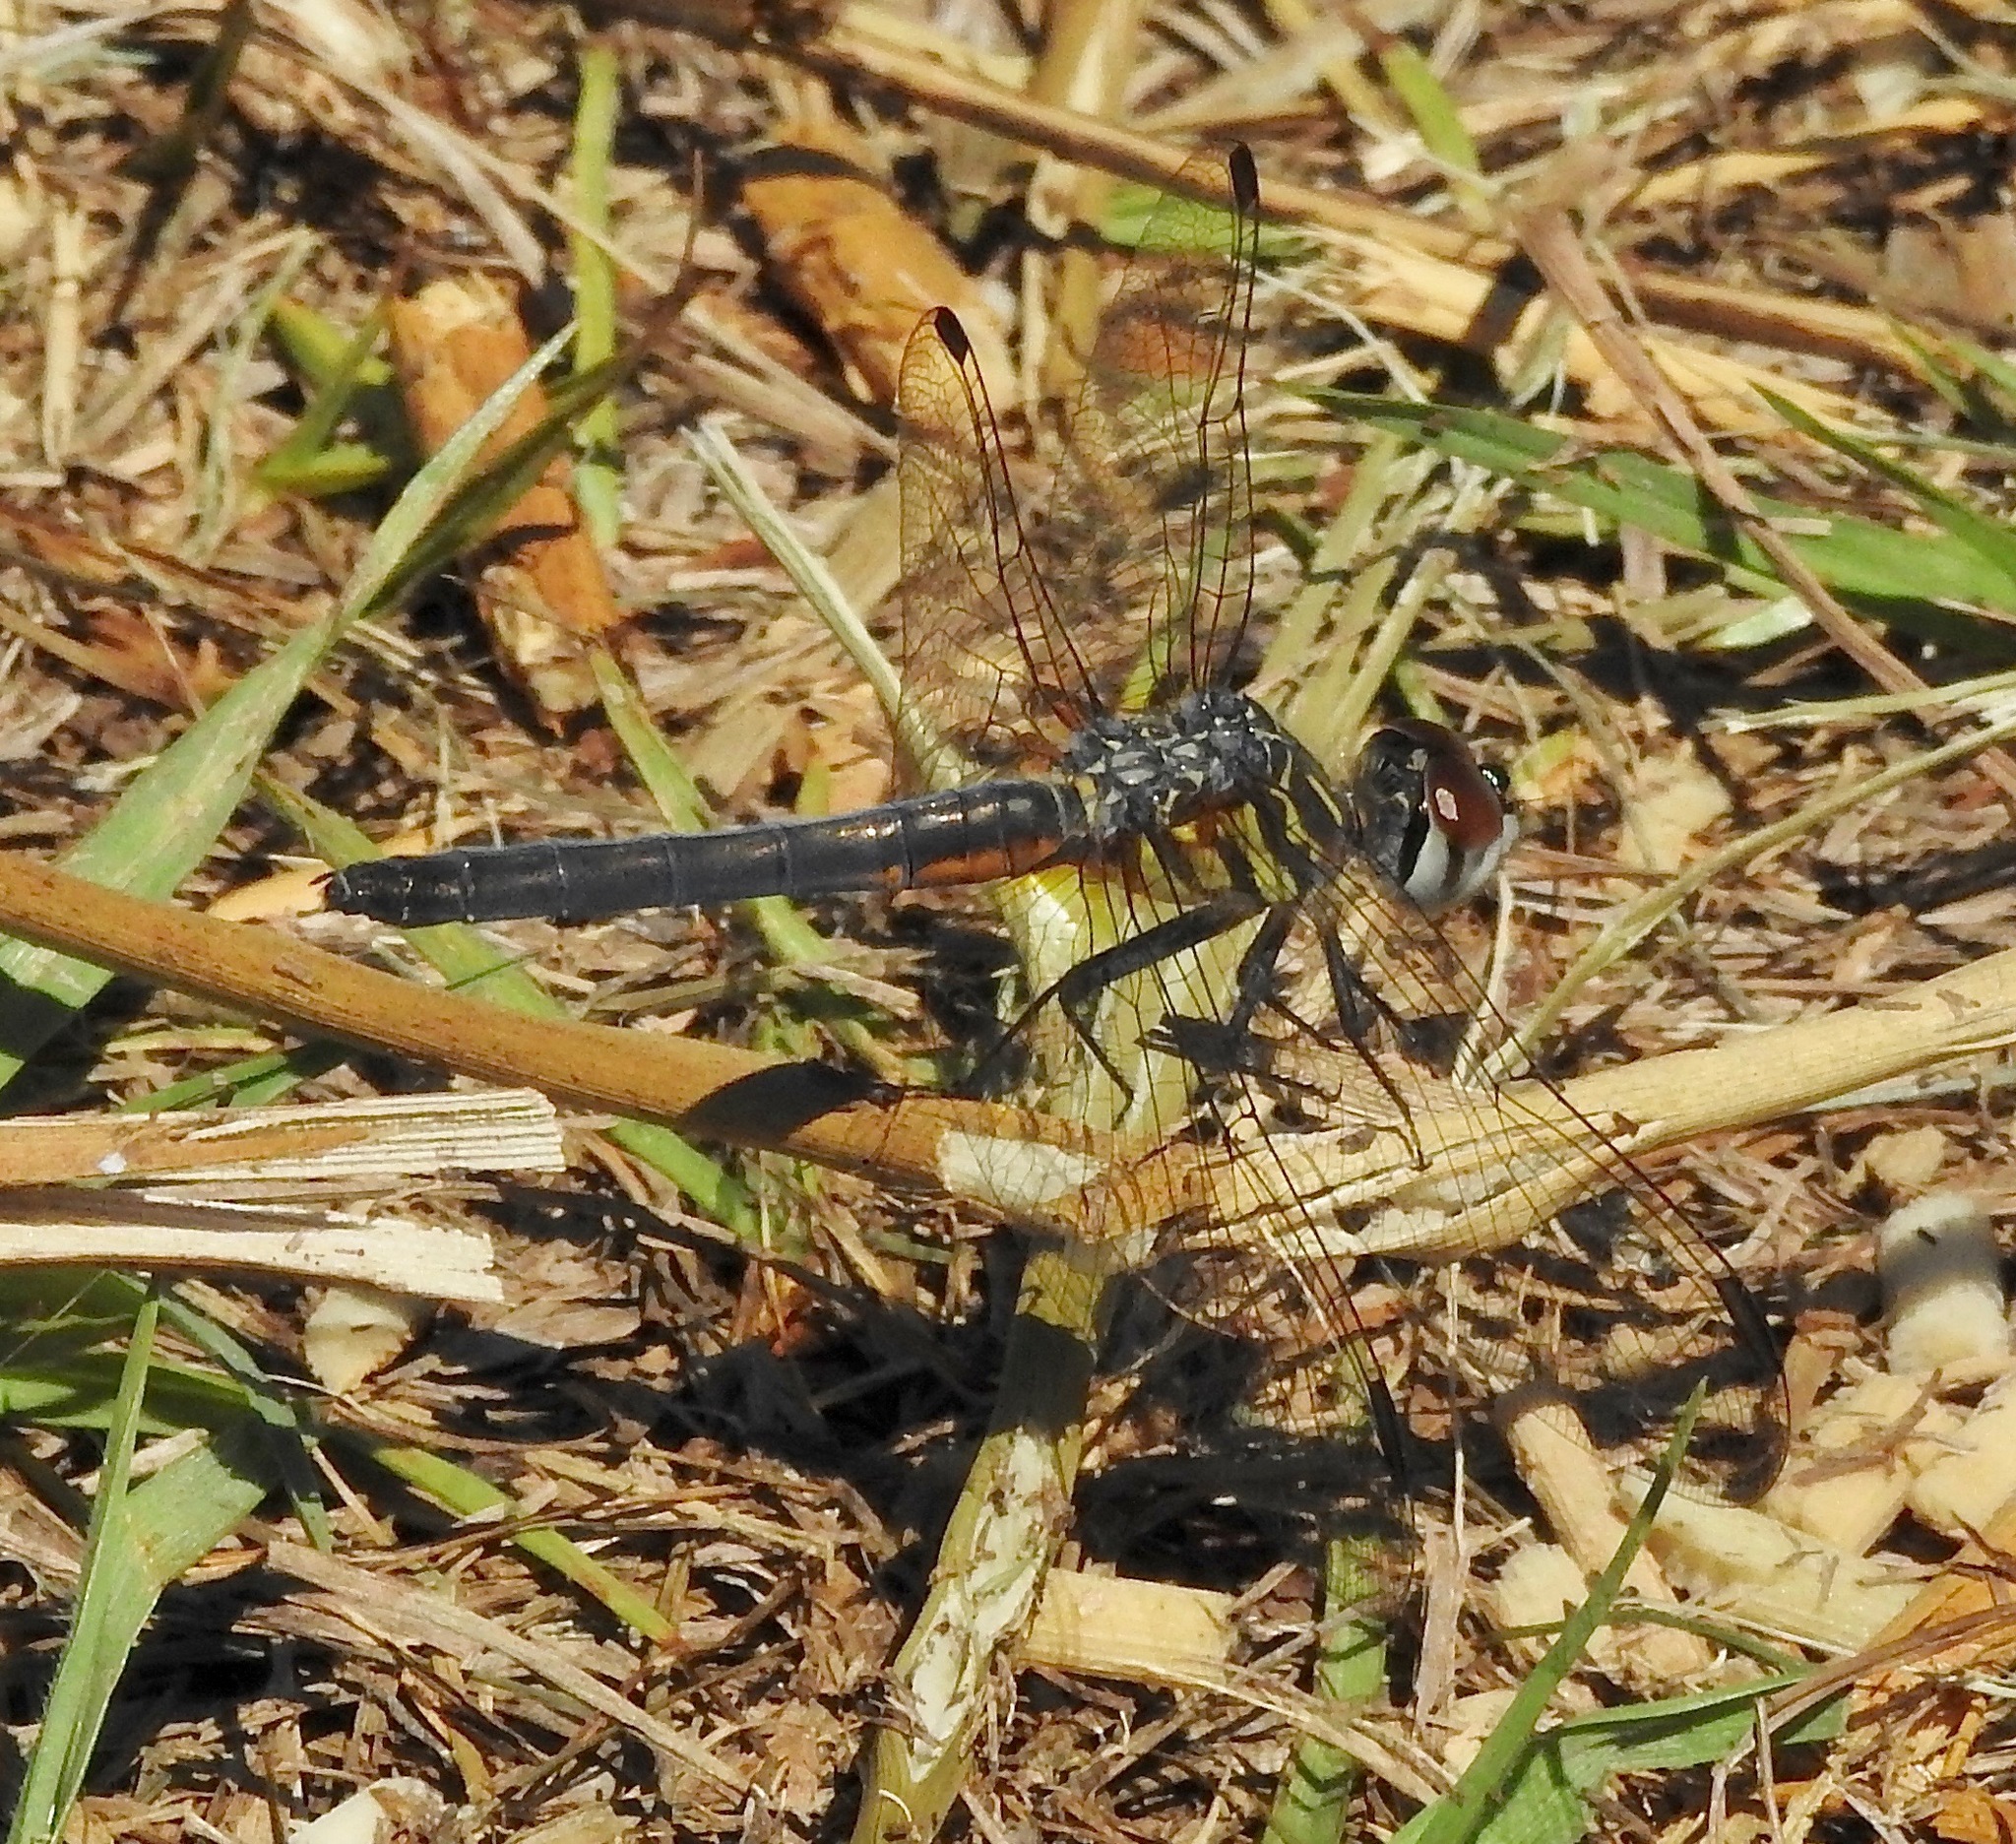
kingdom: Animalia
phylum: Arthropoda
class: Insecta
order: Odonata
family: Libellulidae
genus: Pachydiplax
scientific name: Pachydiplax longipennis
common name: Blue dasher
